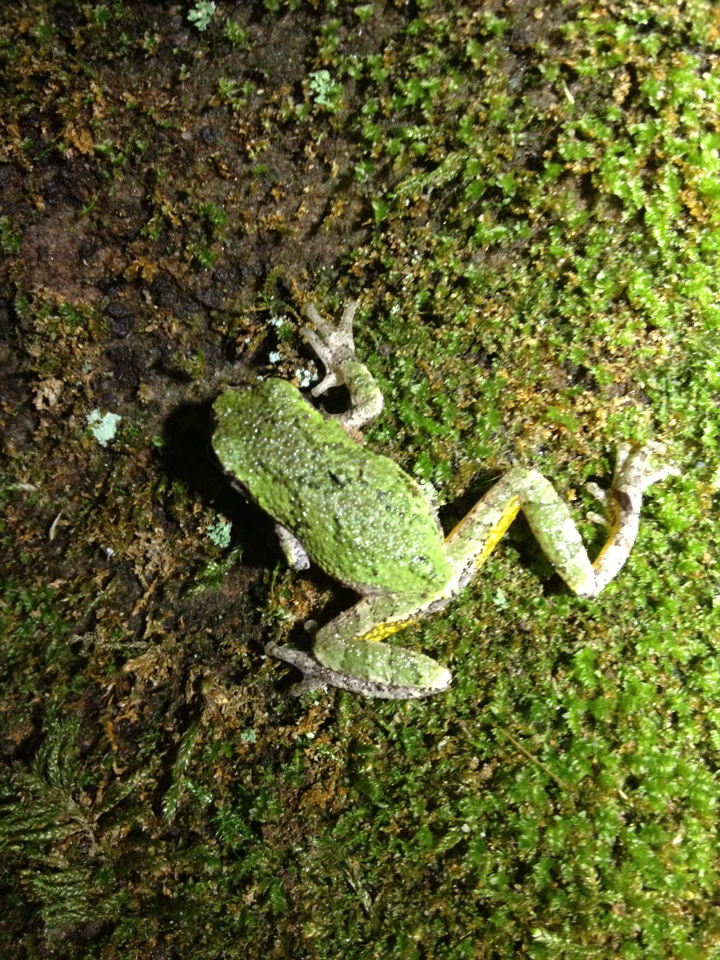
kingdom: Animalia
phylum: Chordata
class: Amphibia
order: Anura
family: Hylidae
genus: Dryophytes
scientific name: Dryophytes versicolor
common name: Gray treefrog
